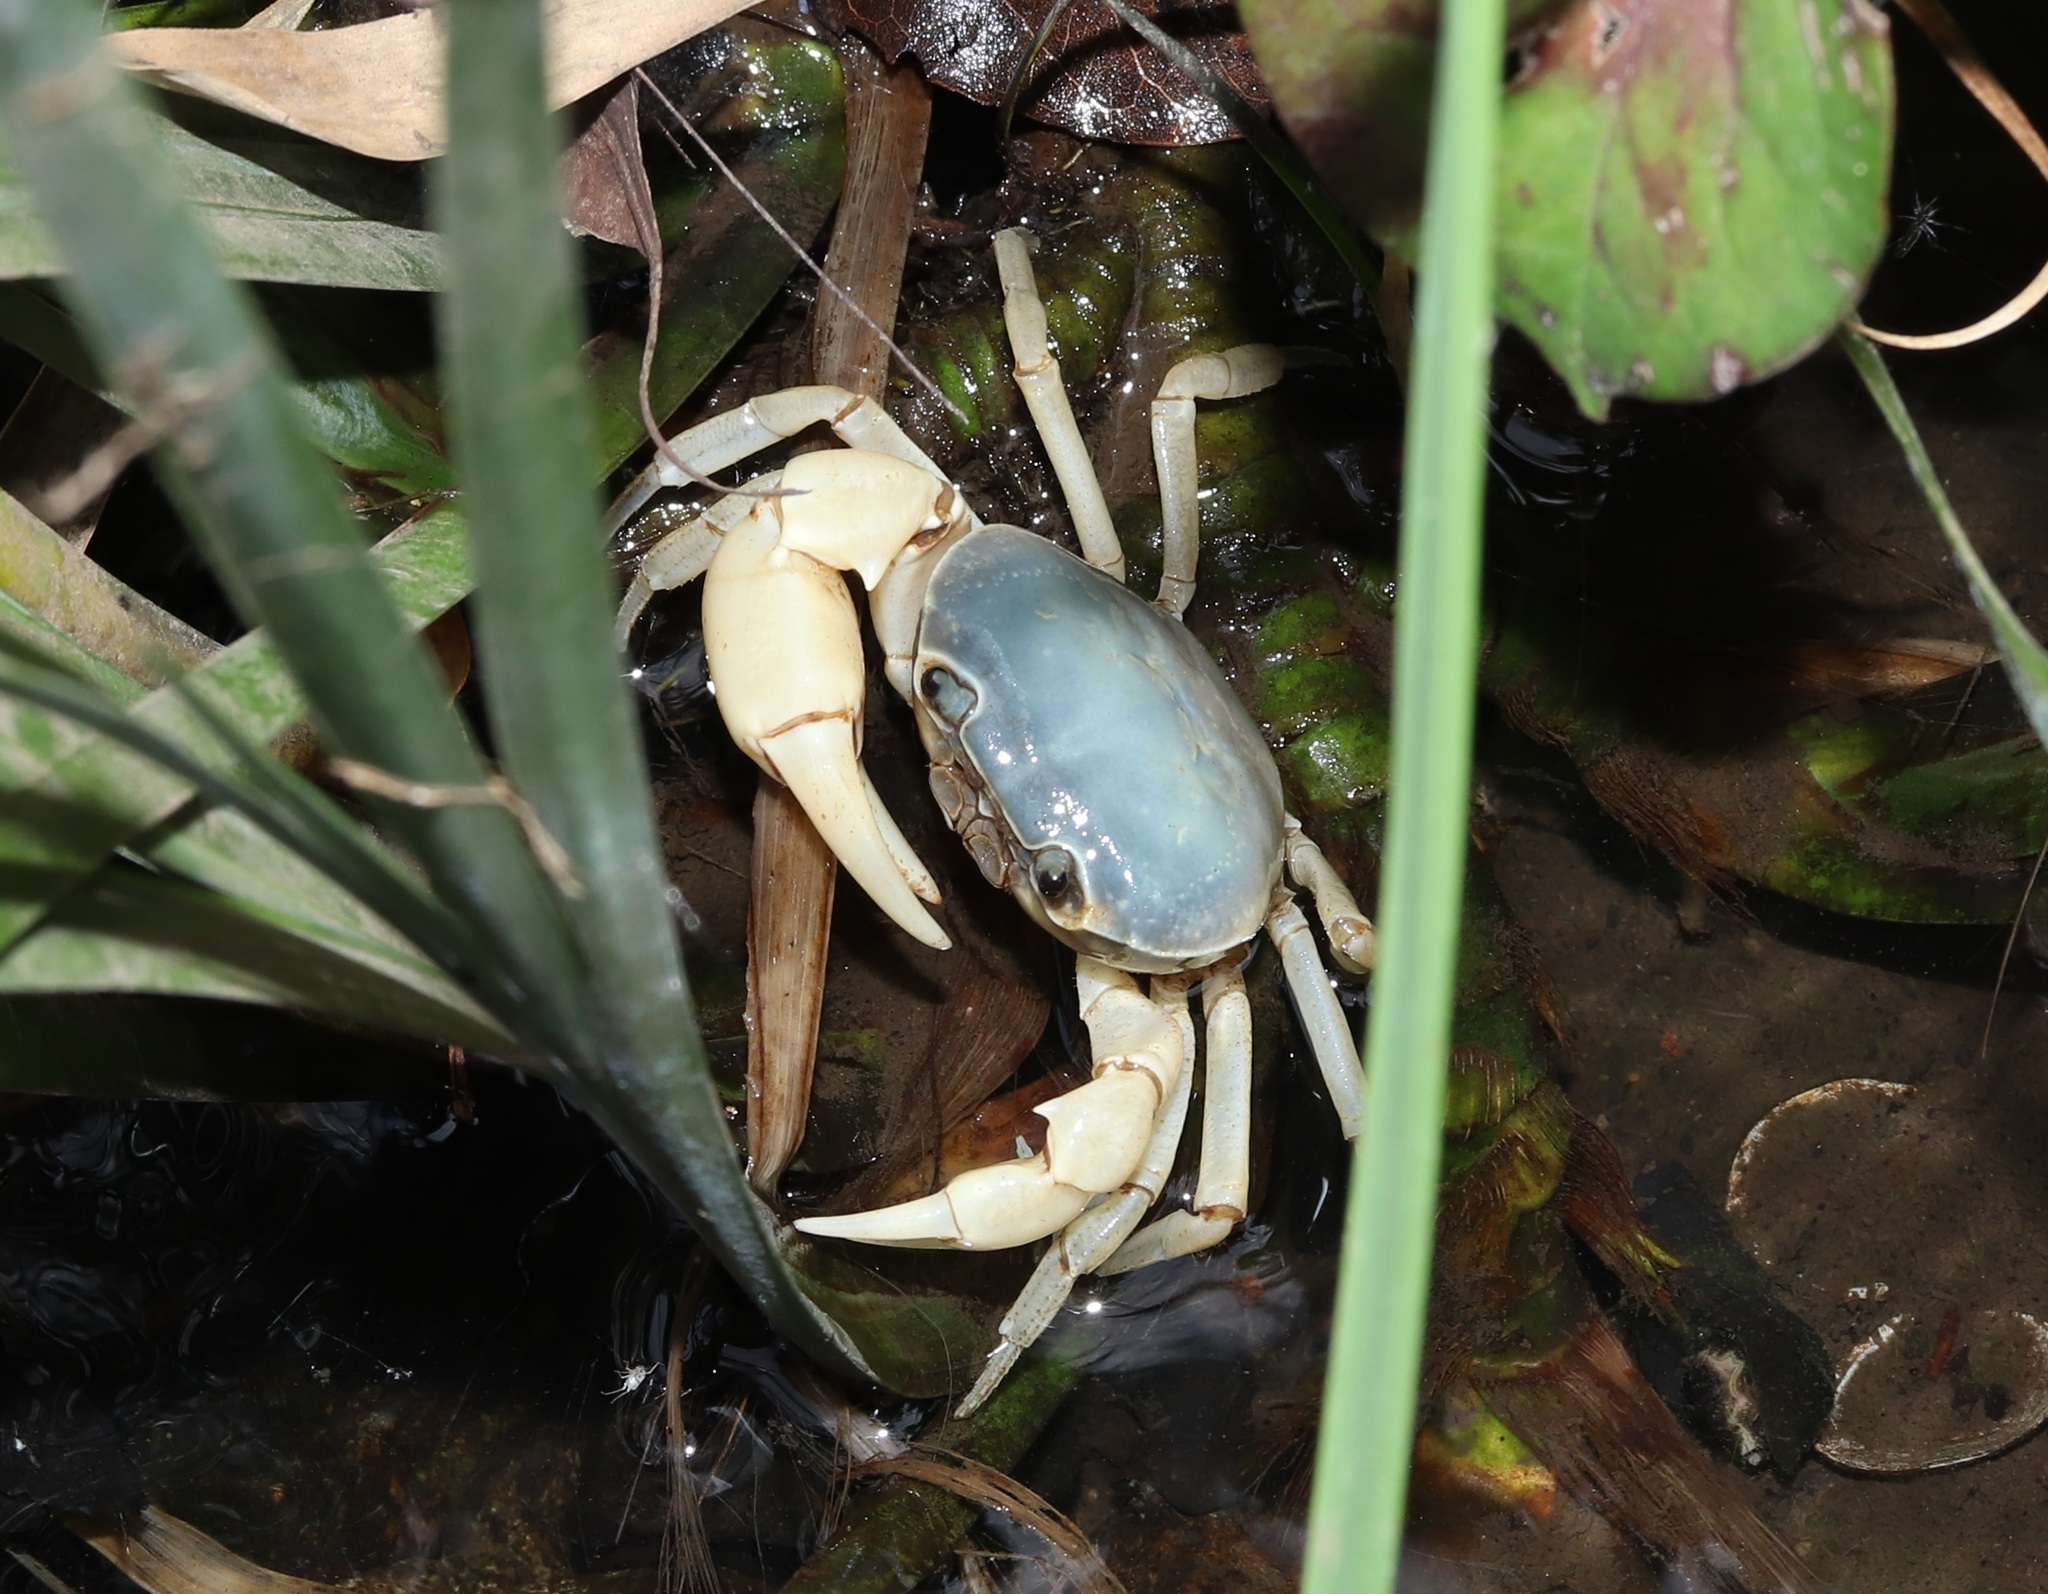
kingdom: Animalia
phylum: Arthropoda
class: Malacostraca
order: Decapoda
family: Potamidae
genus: Geothelphusa
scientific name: Geothelphusa dehaani
